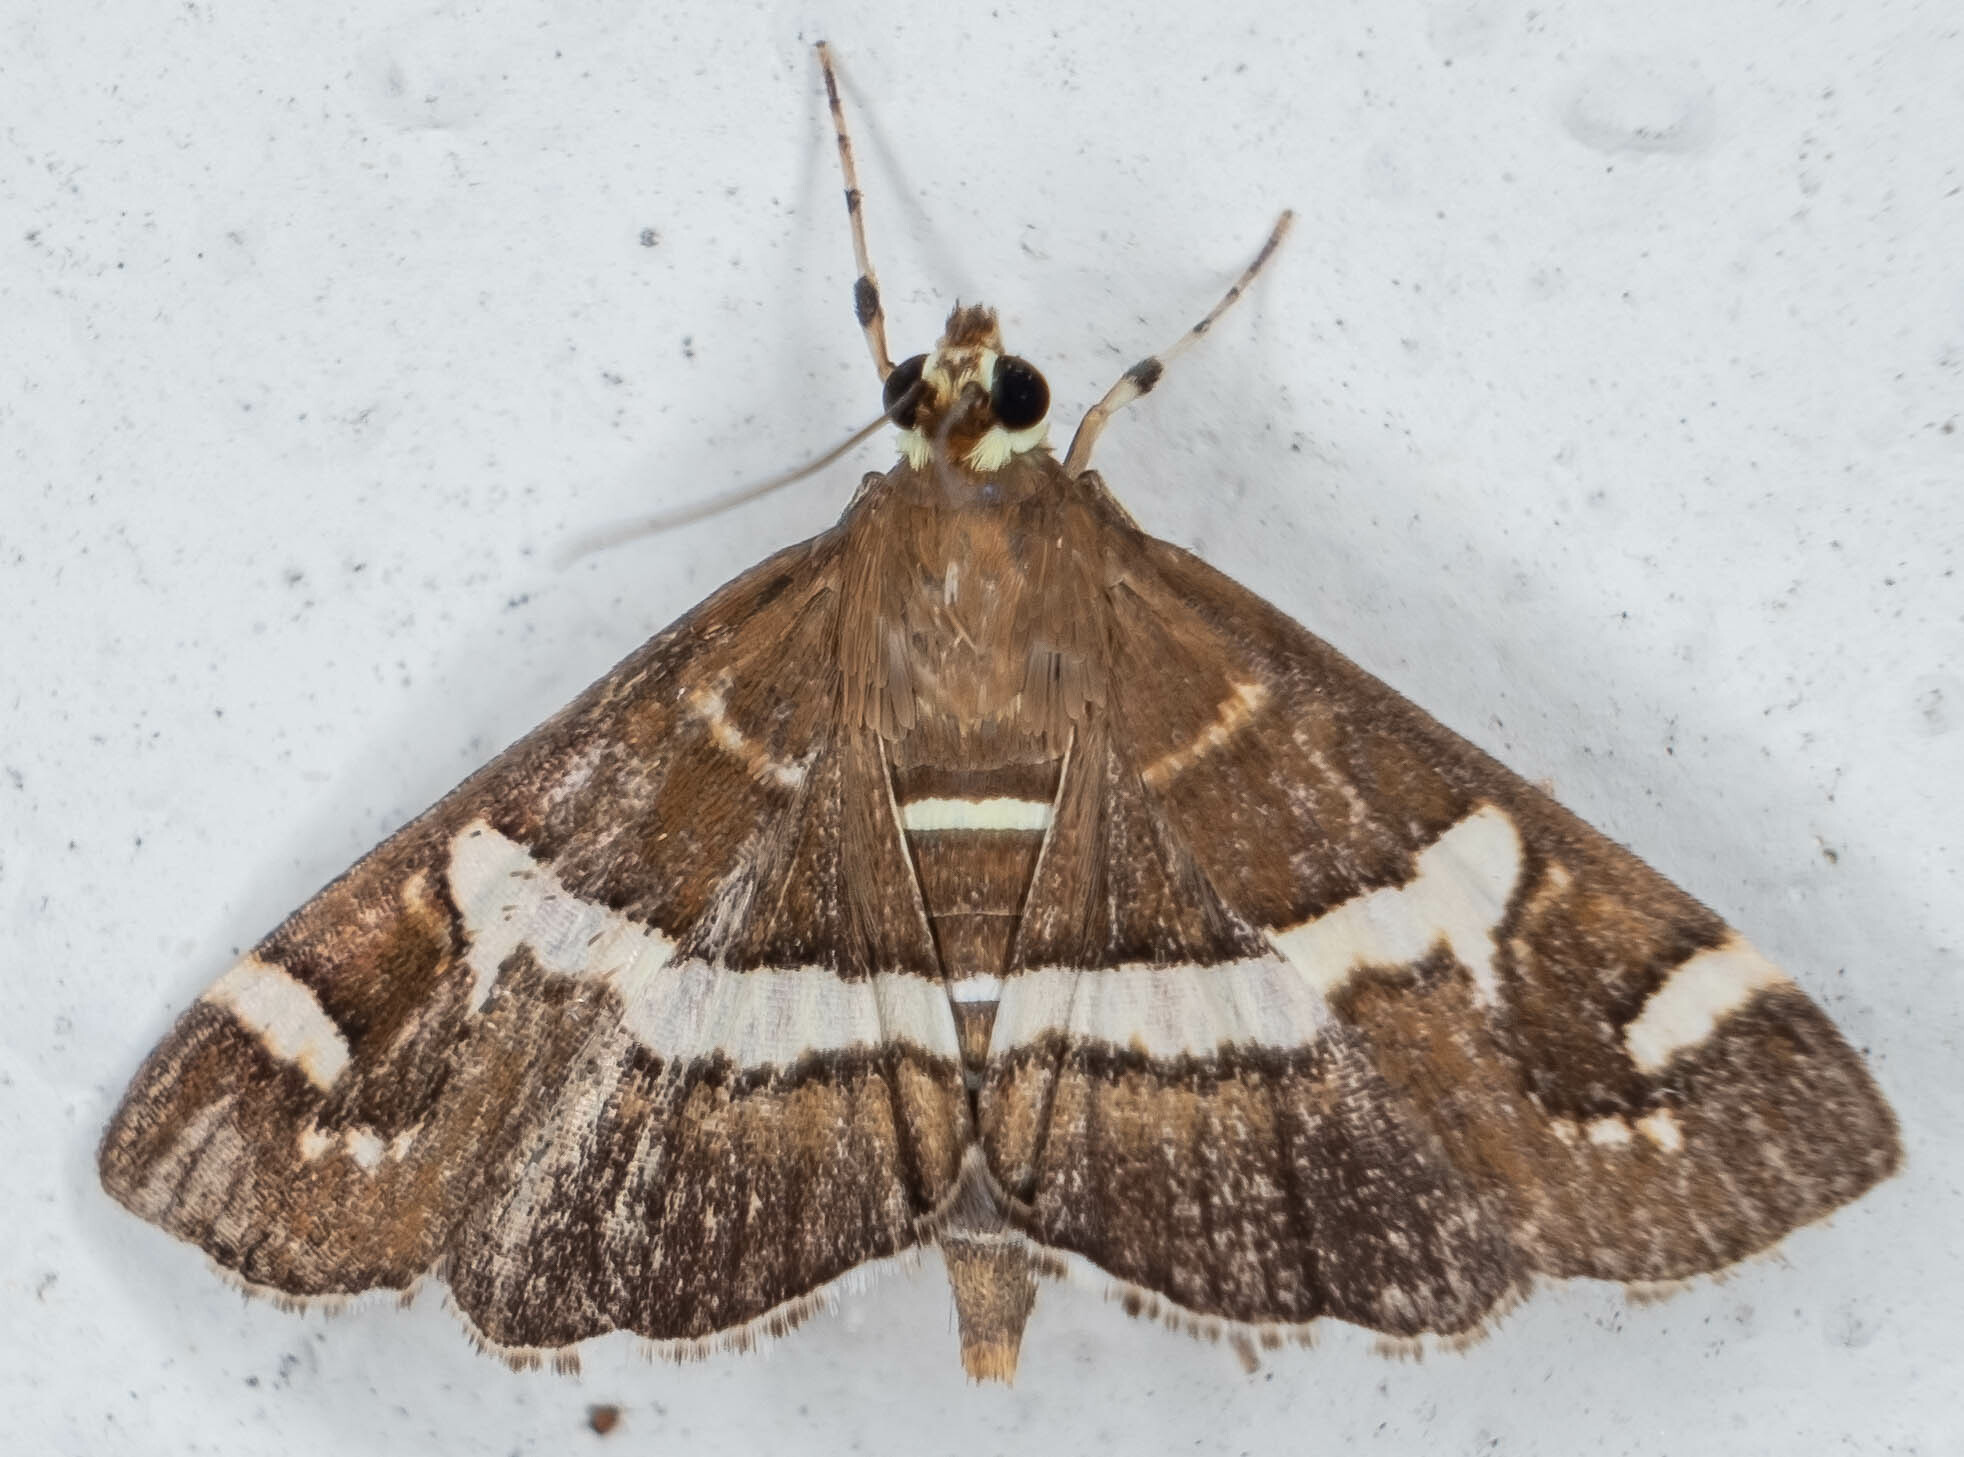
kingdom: Animalia
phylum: Arthropoda
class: Insecta
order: Lepidoptera
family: Crambidae
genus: Spoladea
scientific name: Spoladea recurvalis
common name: Beet webworm moth
